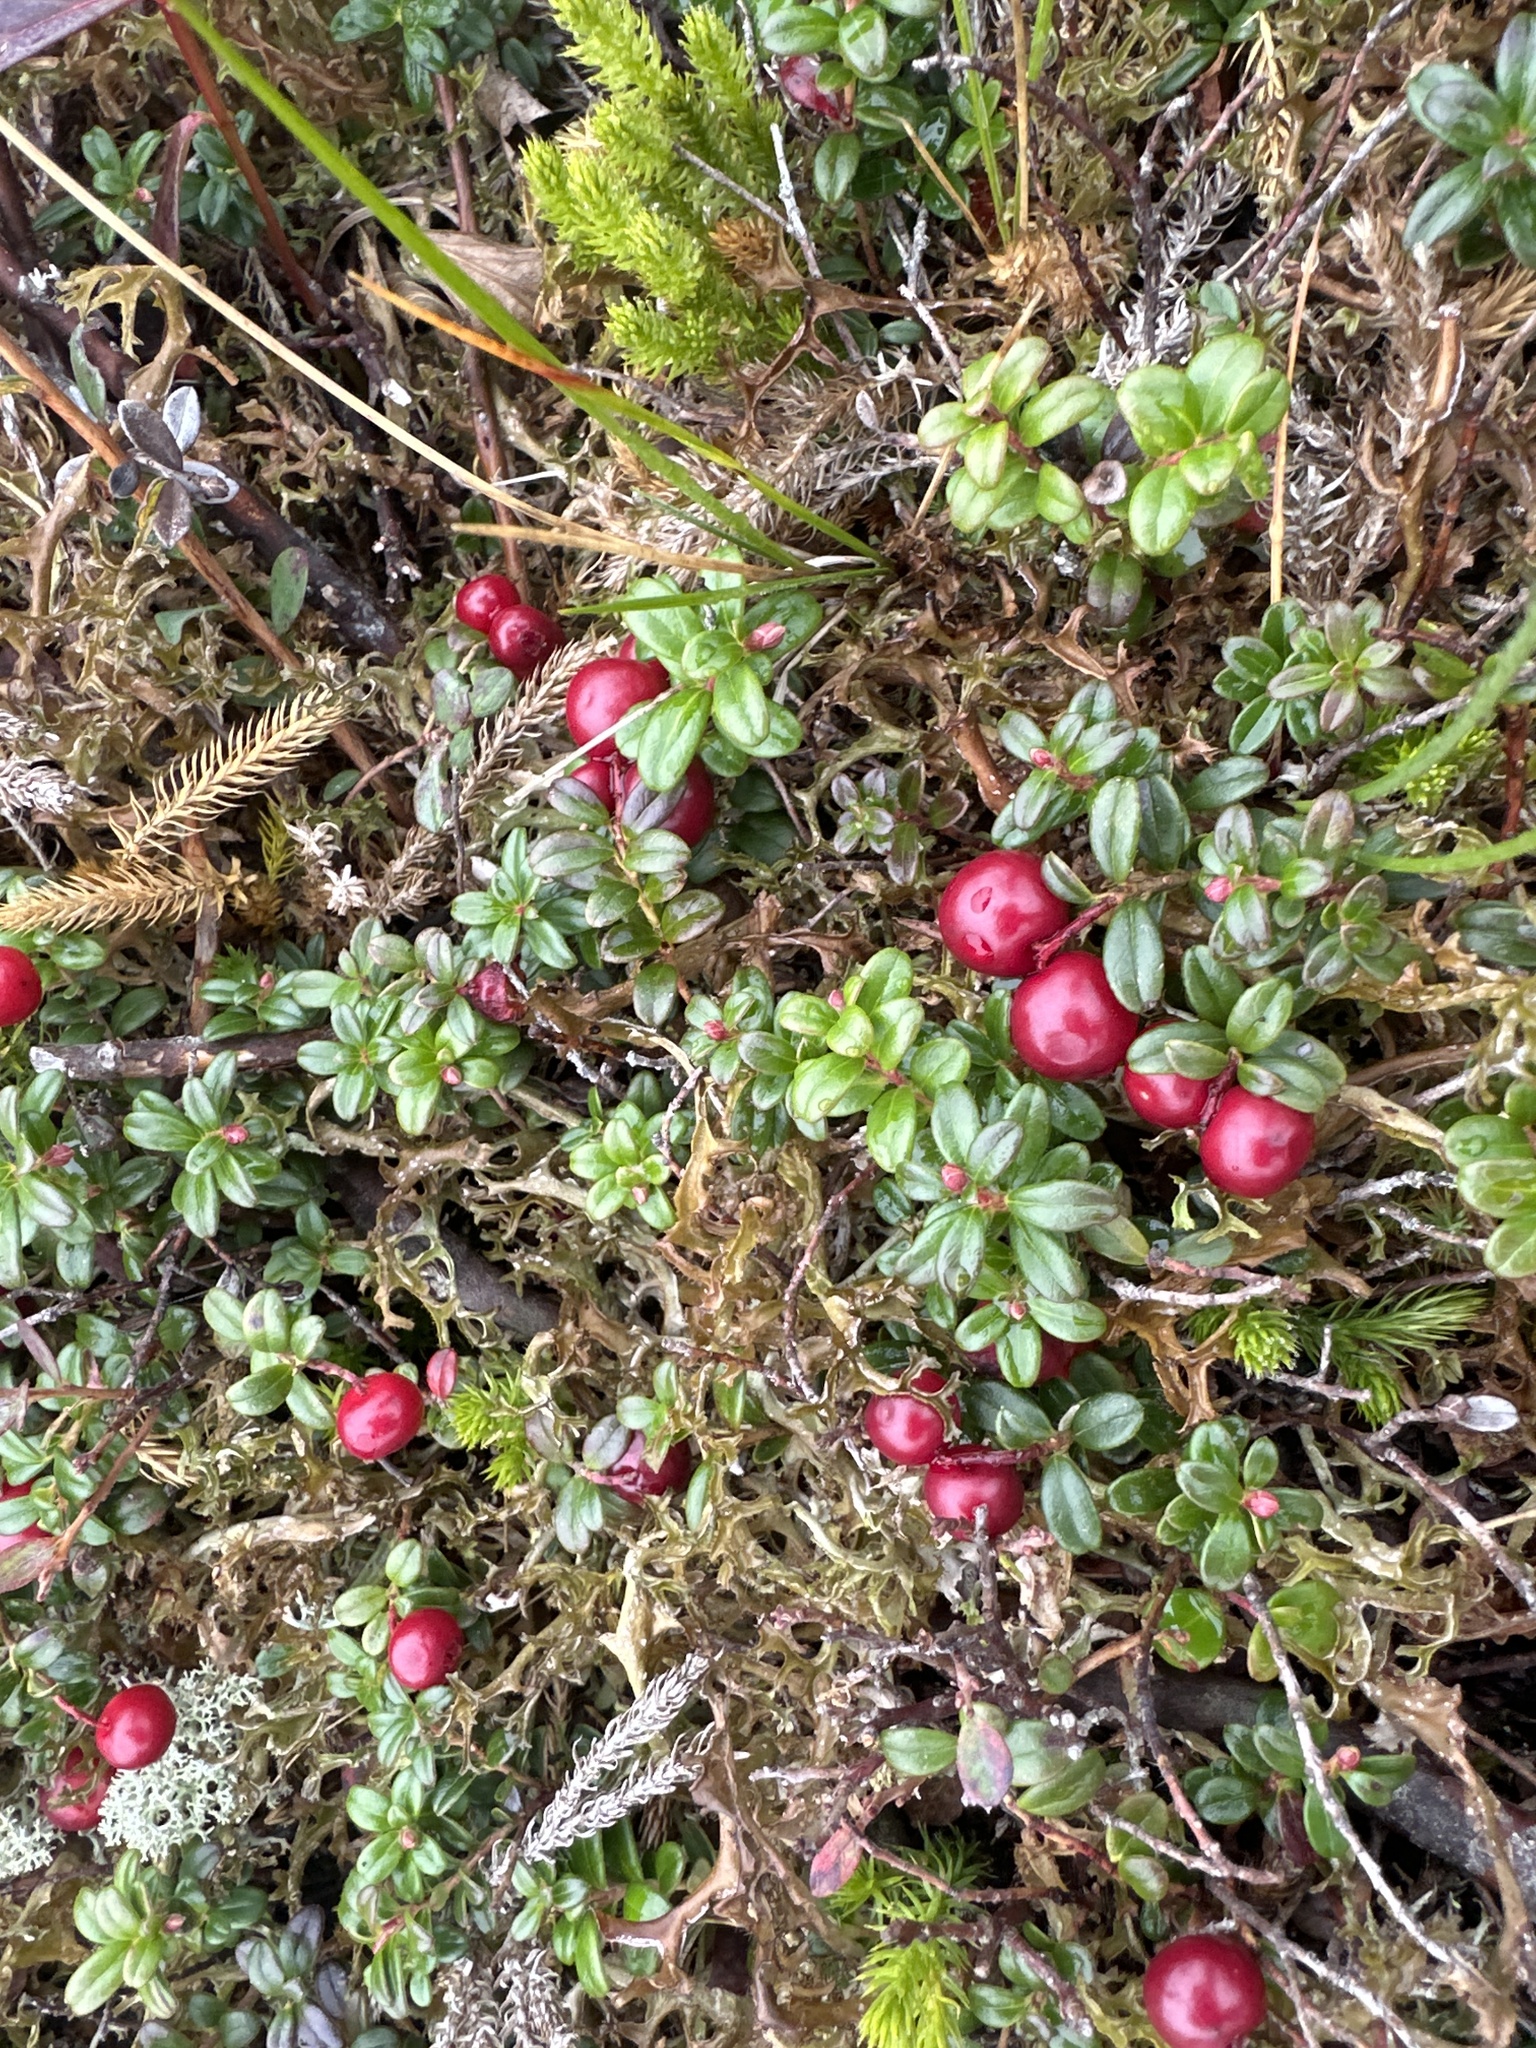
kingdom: Plantae
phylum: Tracheophyta
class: Magnoliopsida
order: Ericales
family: Ericaceae
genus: Vaccinium
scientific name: Vaccinium vitis-idaea
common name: Cowberry
